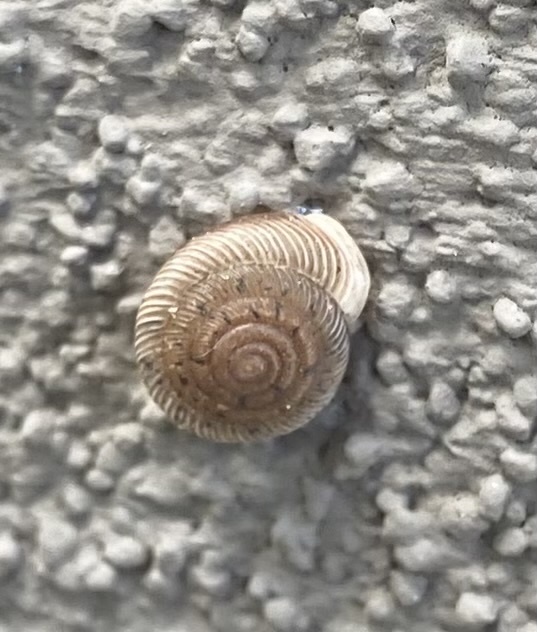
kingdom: Animalia
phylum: Mollusca
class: Gastropoda
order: Stylommatophora
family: Polygyridae
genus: Polygyra
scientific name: Polygyra cereolus
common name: Southern flatcone snail
